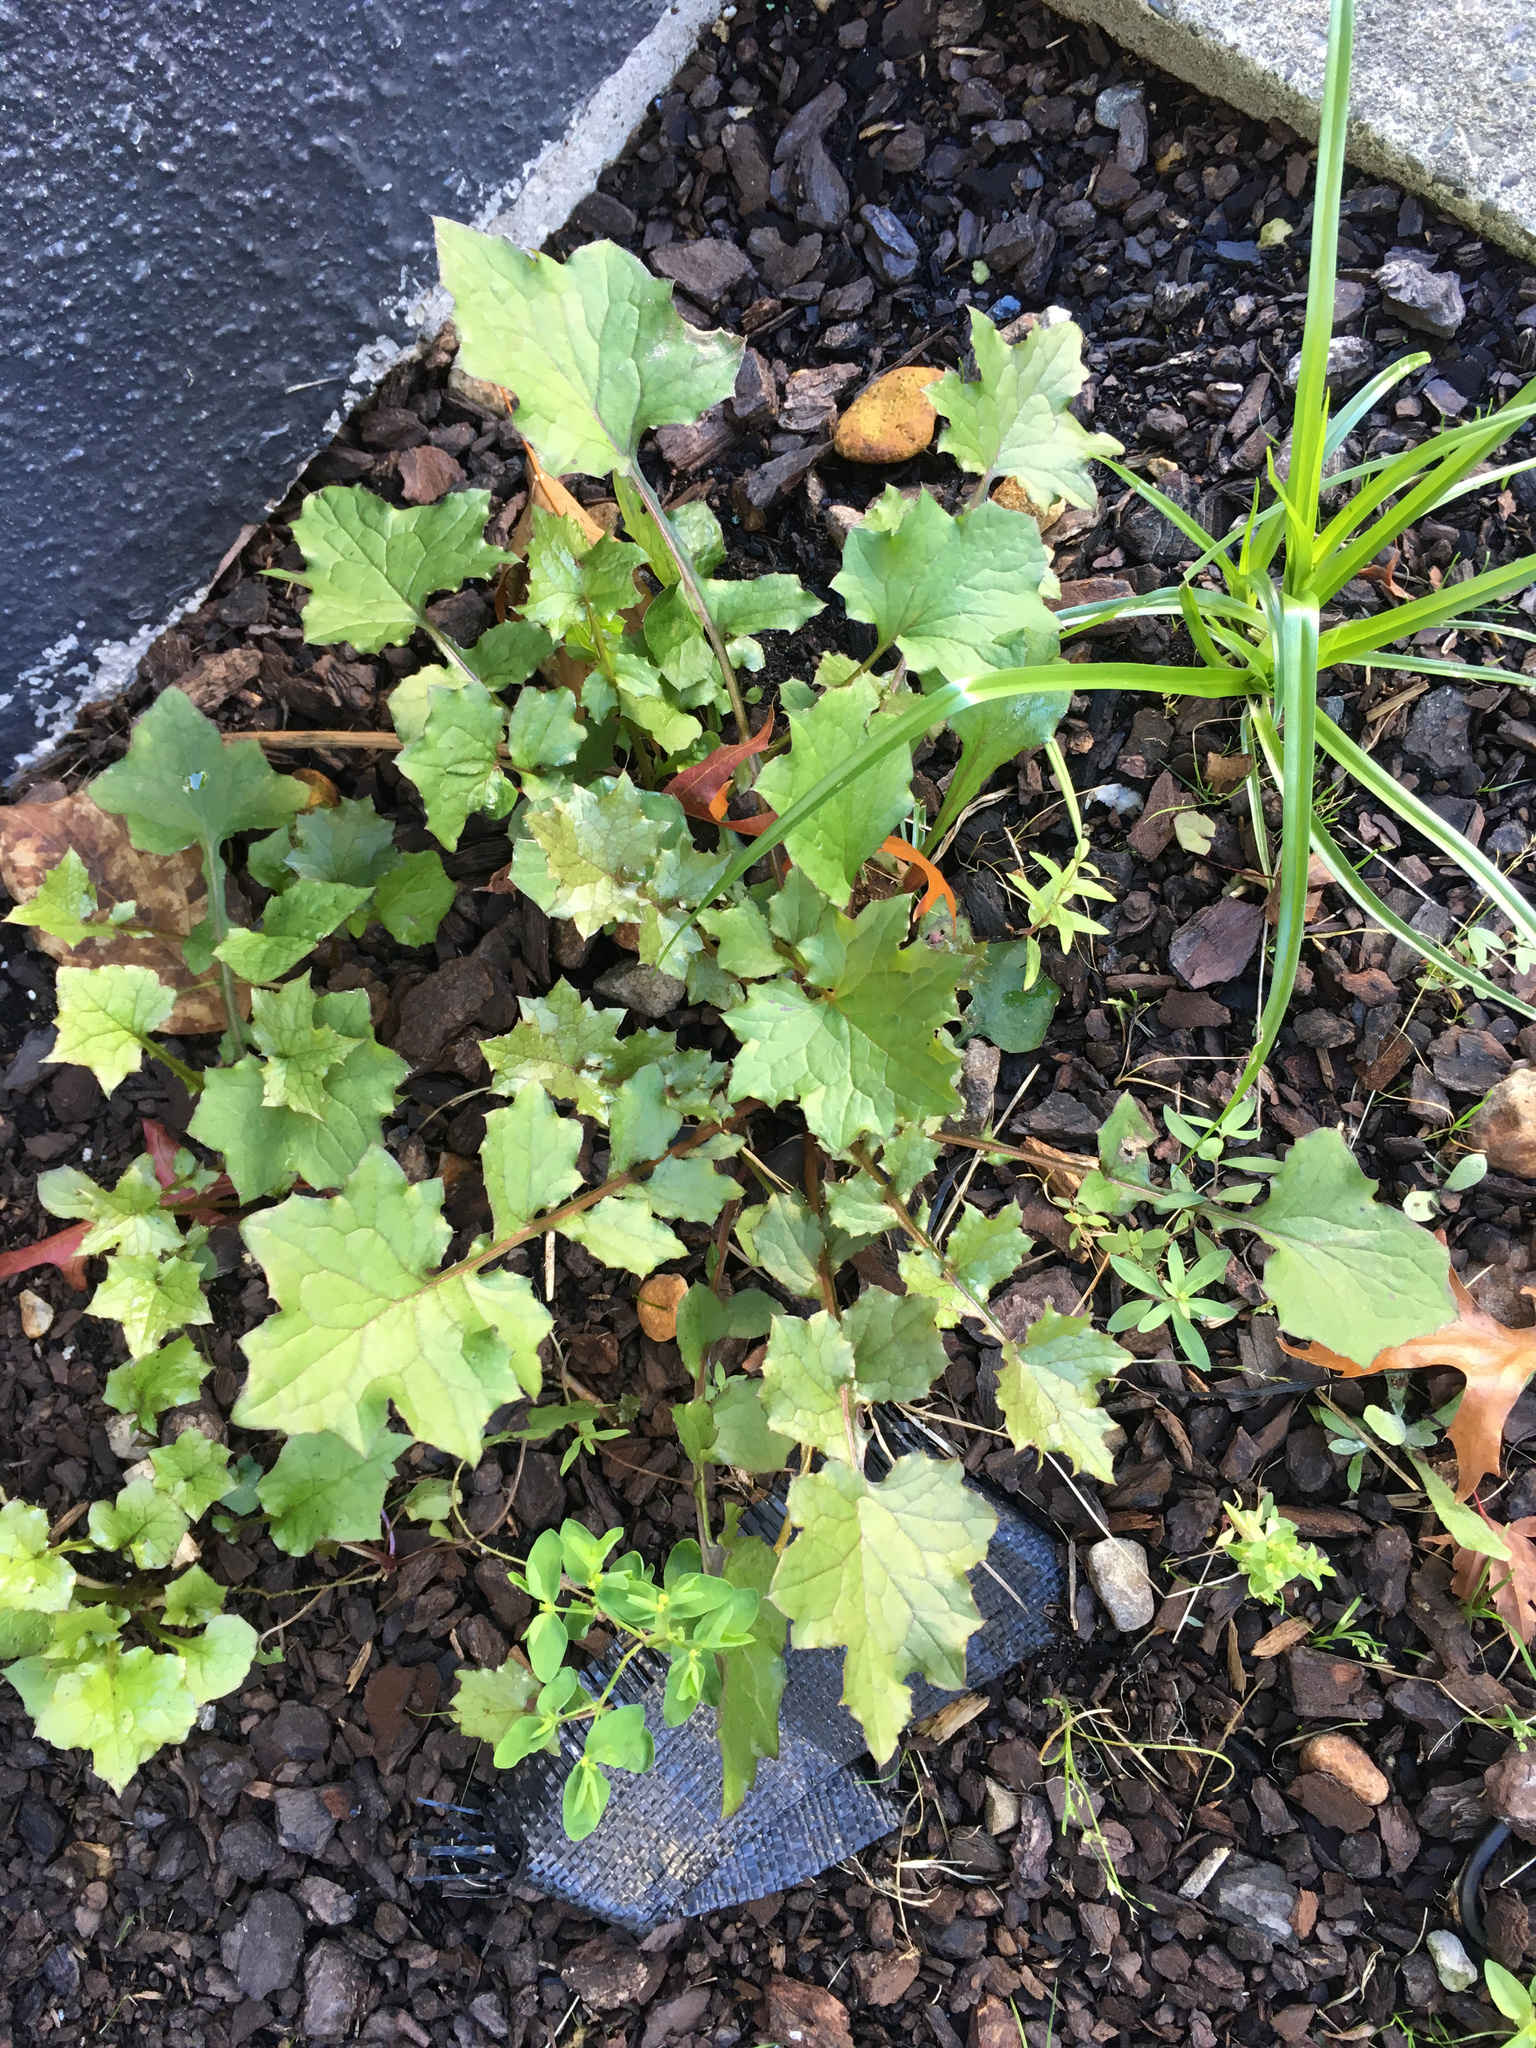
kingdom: Plantae
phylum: Tracheophyta
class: Magnoliopsida
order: Asterales
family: Asteraceae
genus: Mycelis
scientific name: Mycelis muralis
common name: Wall lettuce
